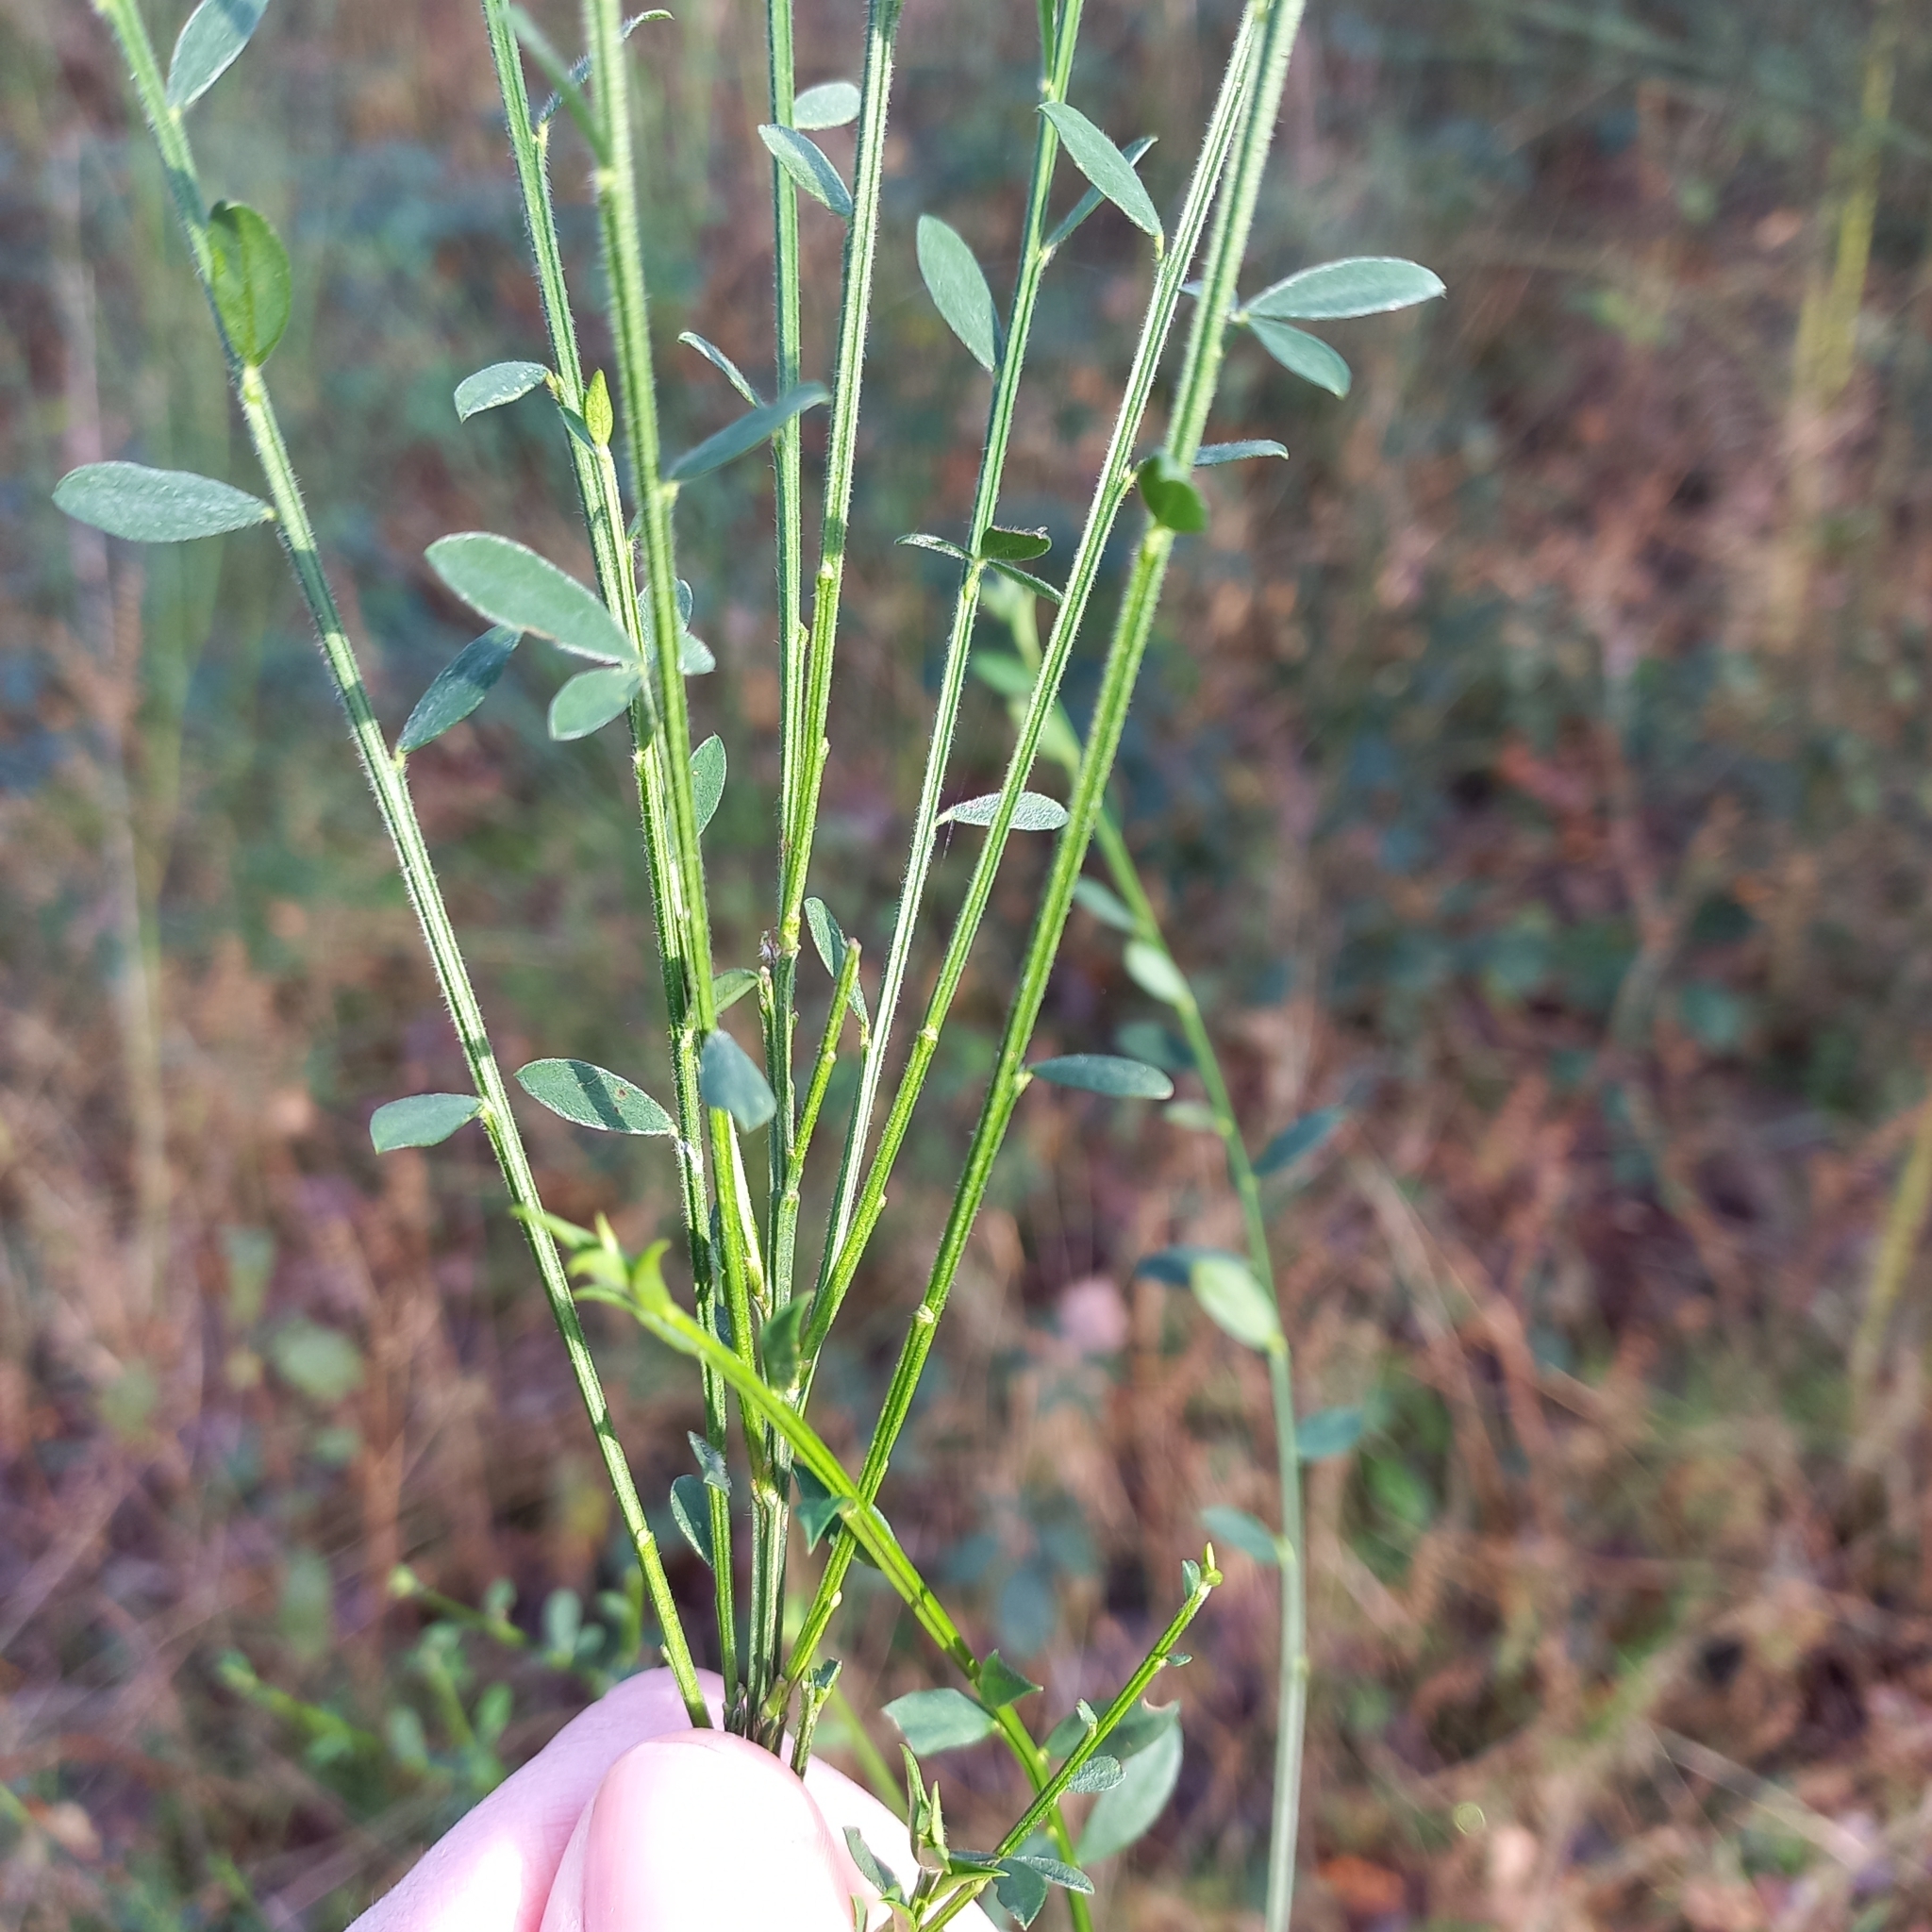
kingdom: Plantae
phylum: Tracheophyta
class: Magnoliopsida
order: Fabales
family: Fabaceae
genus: Cytisus
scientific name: Cytisus scoparius
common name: Scotch broom
